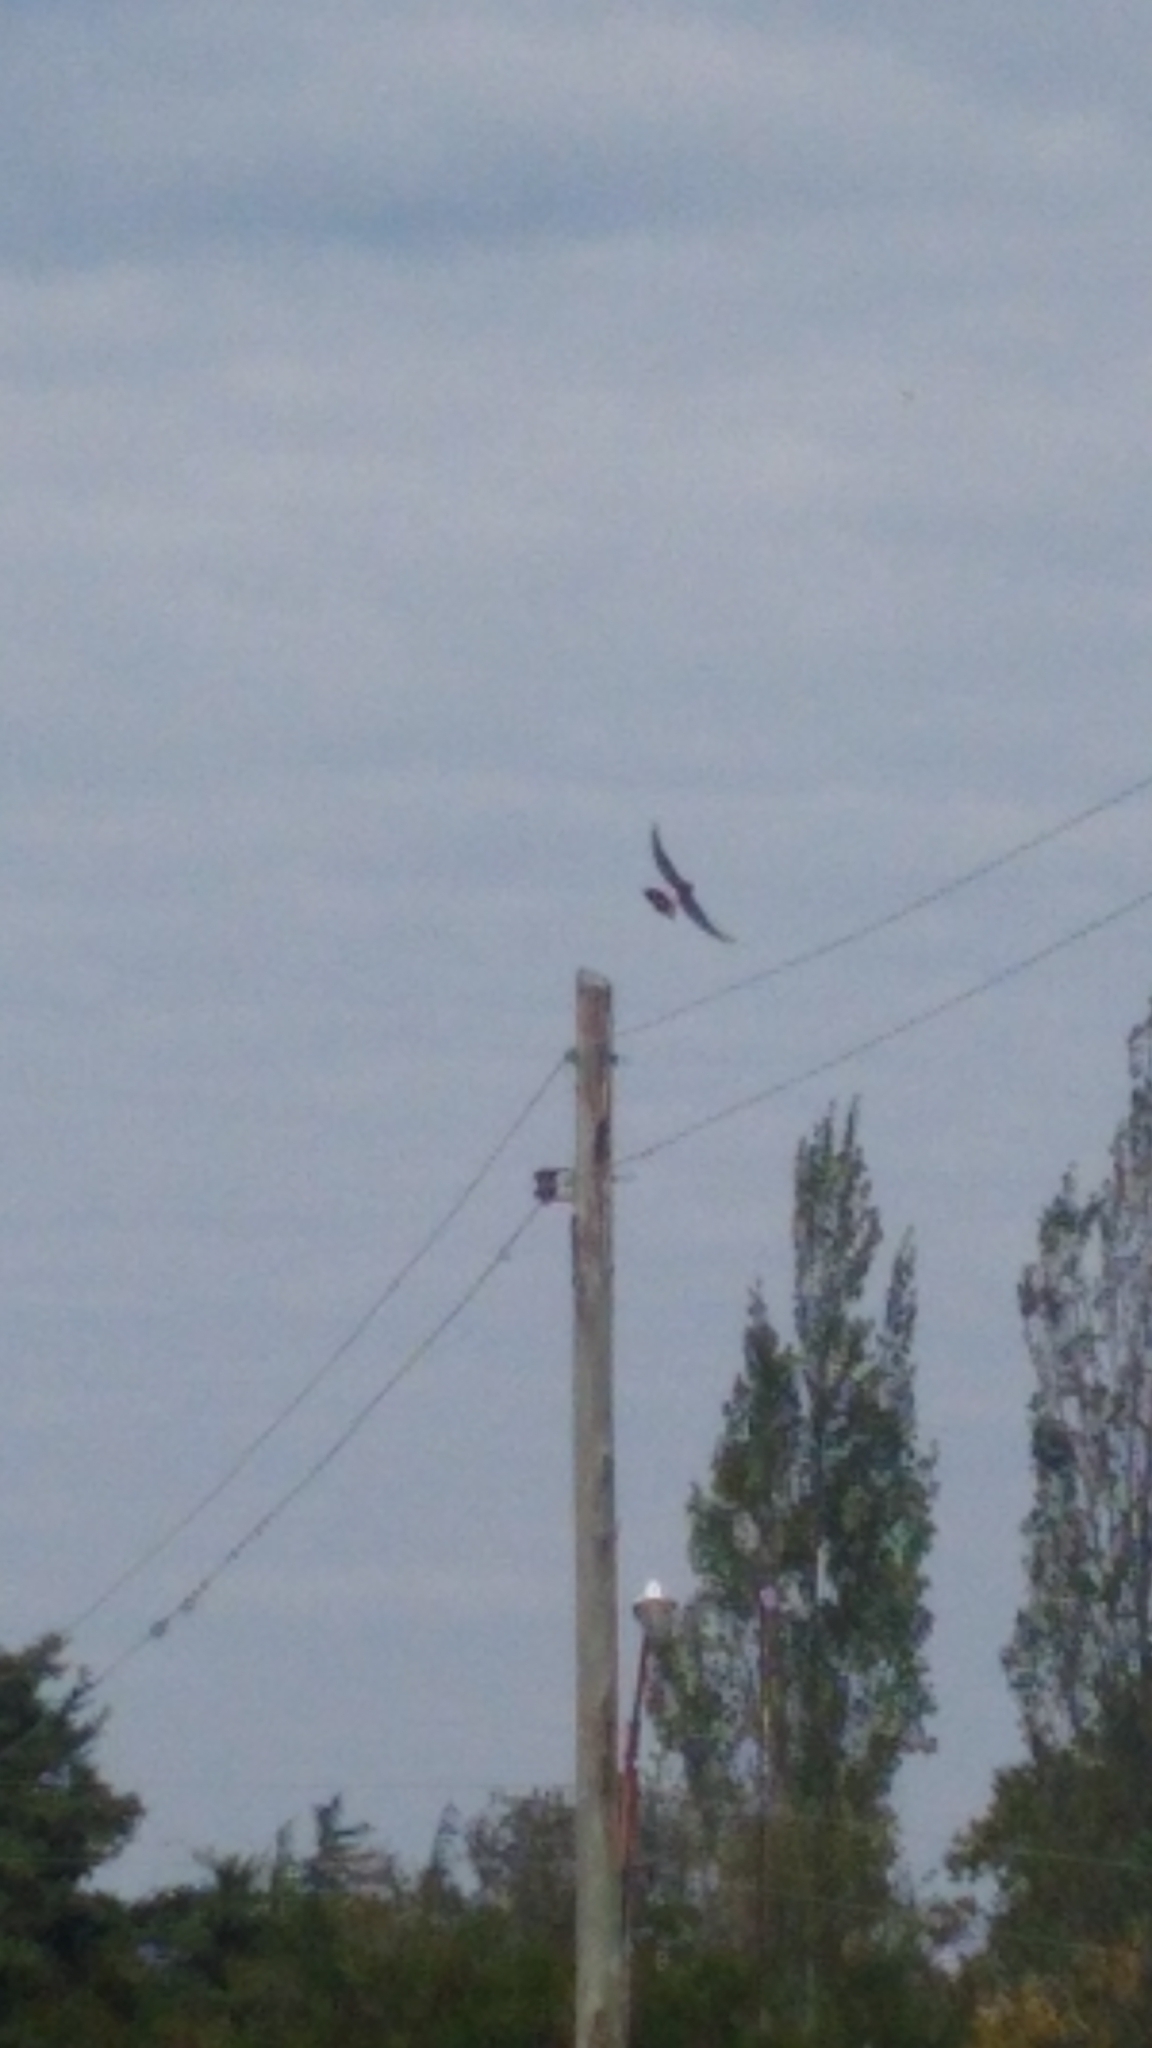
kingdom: Animalia
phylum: Chordata
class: Aves
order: Falconiformes
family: Falconidae
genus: Spiziapteryx
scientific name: Spiziapteryx circumcincta
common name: Spot-winged falconet
